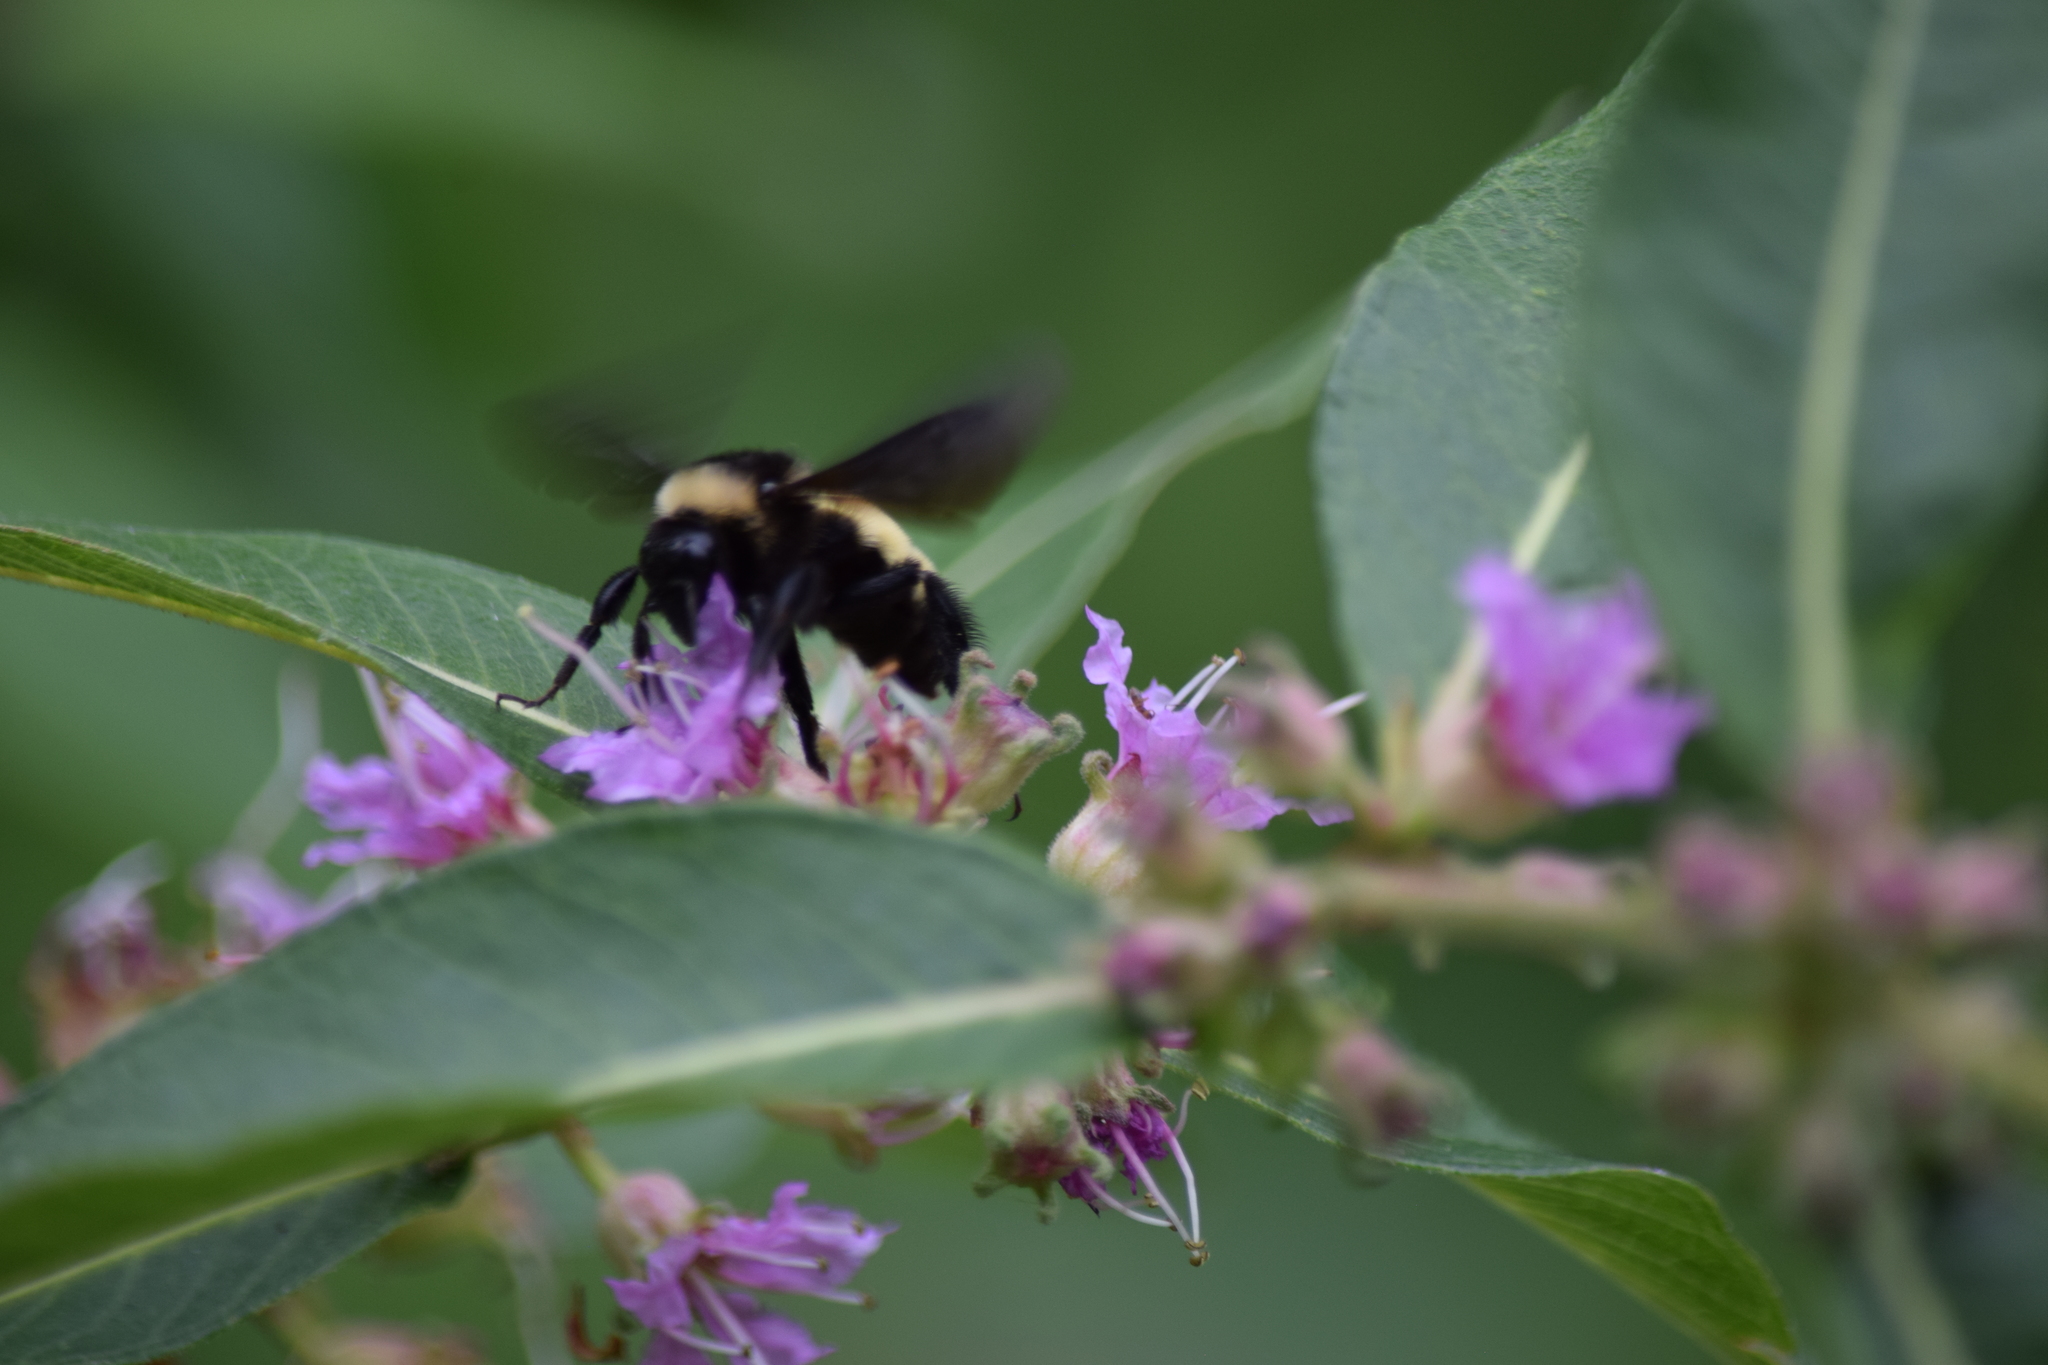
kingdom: Animalia
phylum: Arthropoda
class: Insecta
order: Hymenoptera
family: Apidae
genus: Bombus
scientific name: Bombus pensylvanicus
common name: Bumble bee
